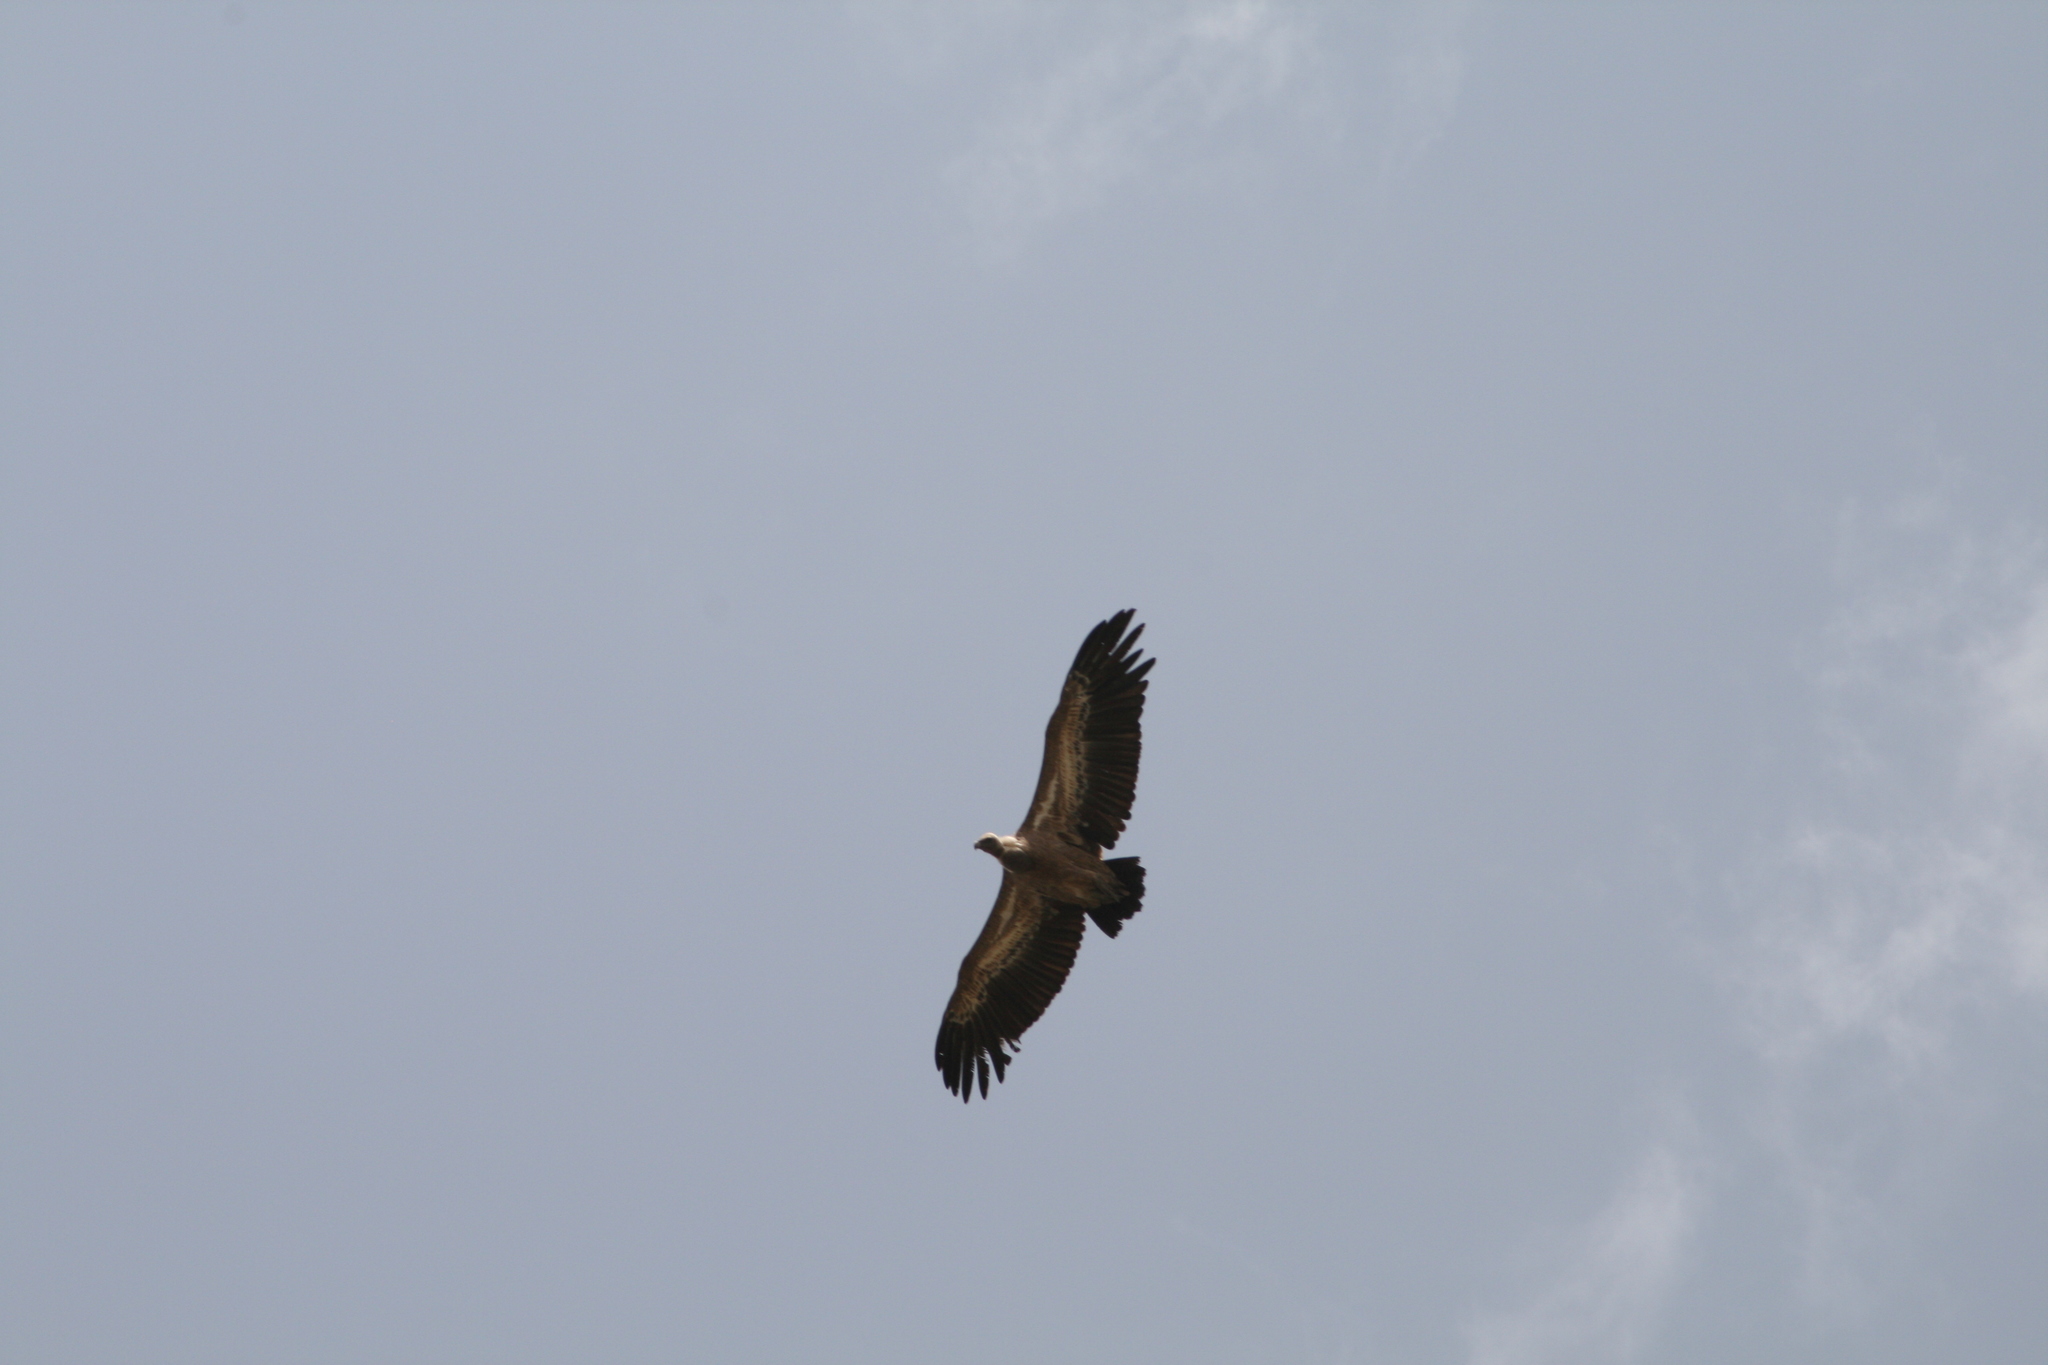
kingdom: Animalia
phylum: Chordata
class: Aves
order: Accipitriformes
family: Accipitridae
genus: Gyps
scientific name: Gyps fulvus
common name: Griffon vulture
